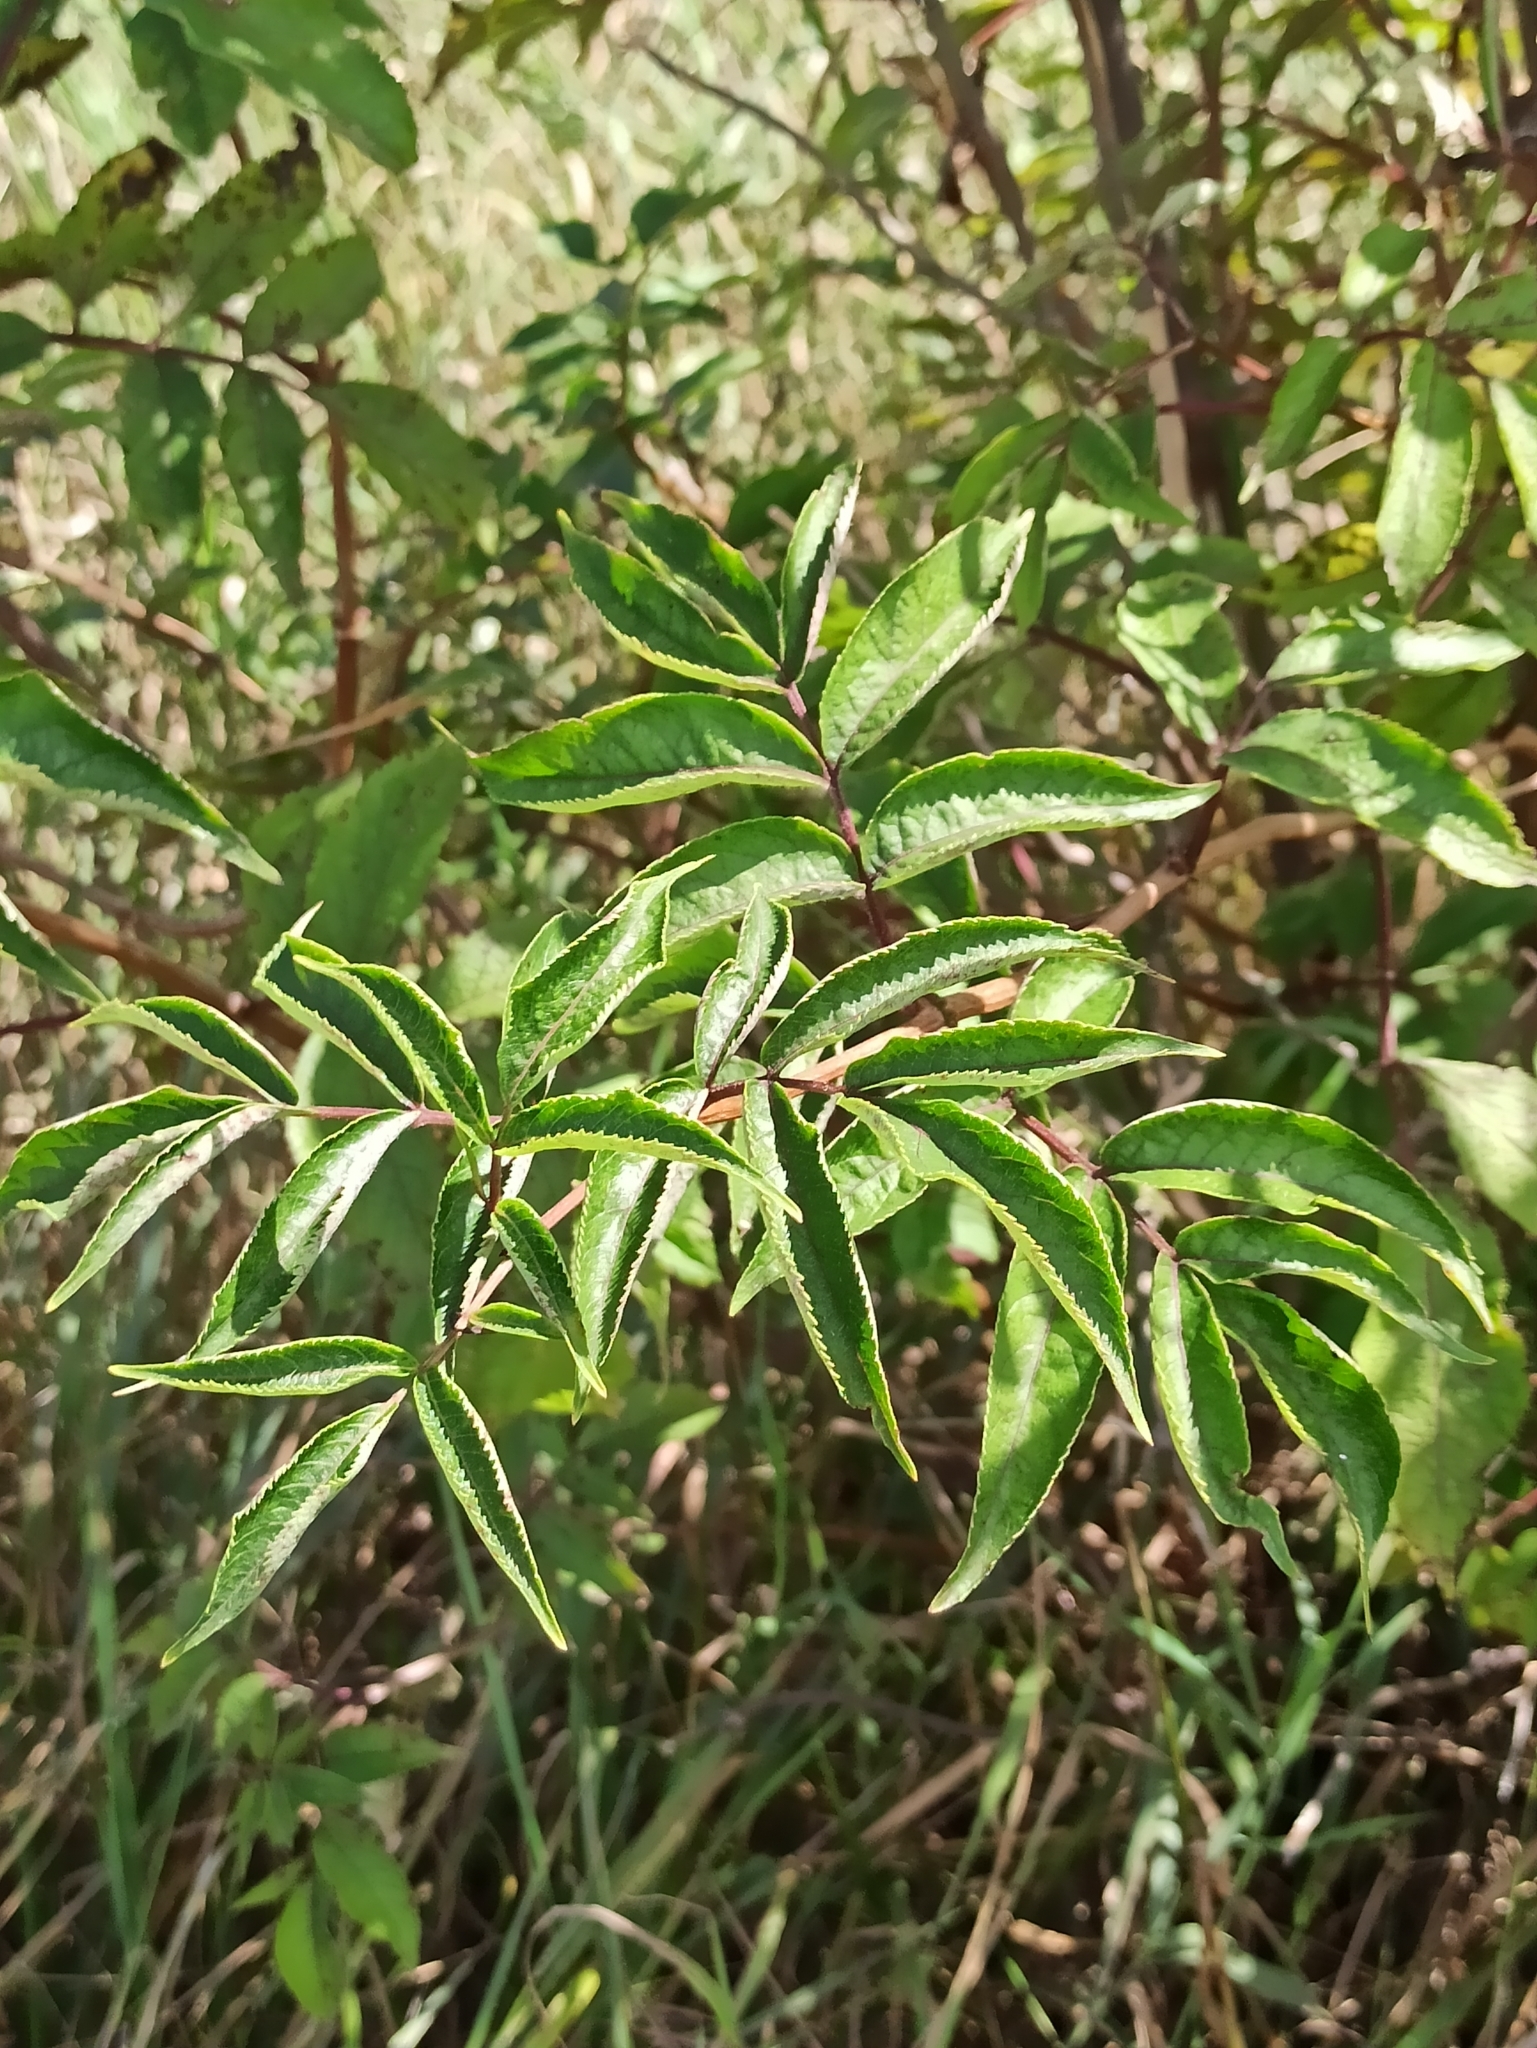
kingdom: Plantae
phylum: Tracheophyta
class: Magnoliopsida
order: Dipsacales
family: Viburnaceae
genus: Sambucus
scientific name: Sambucus racemosa
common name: Red-berried elder
